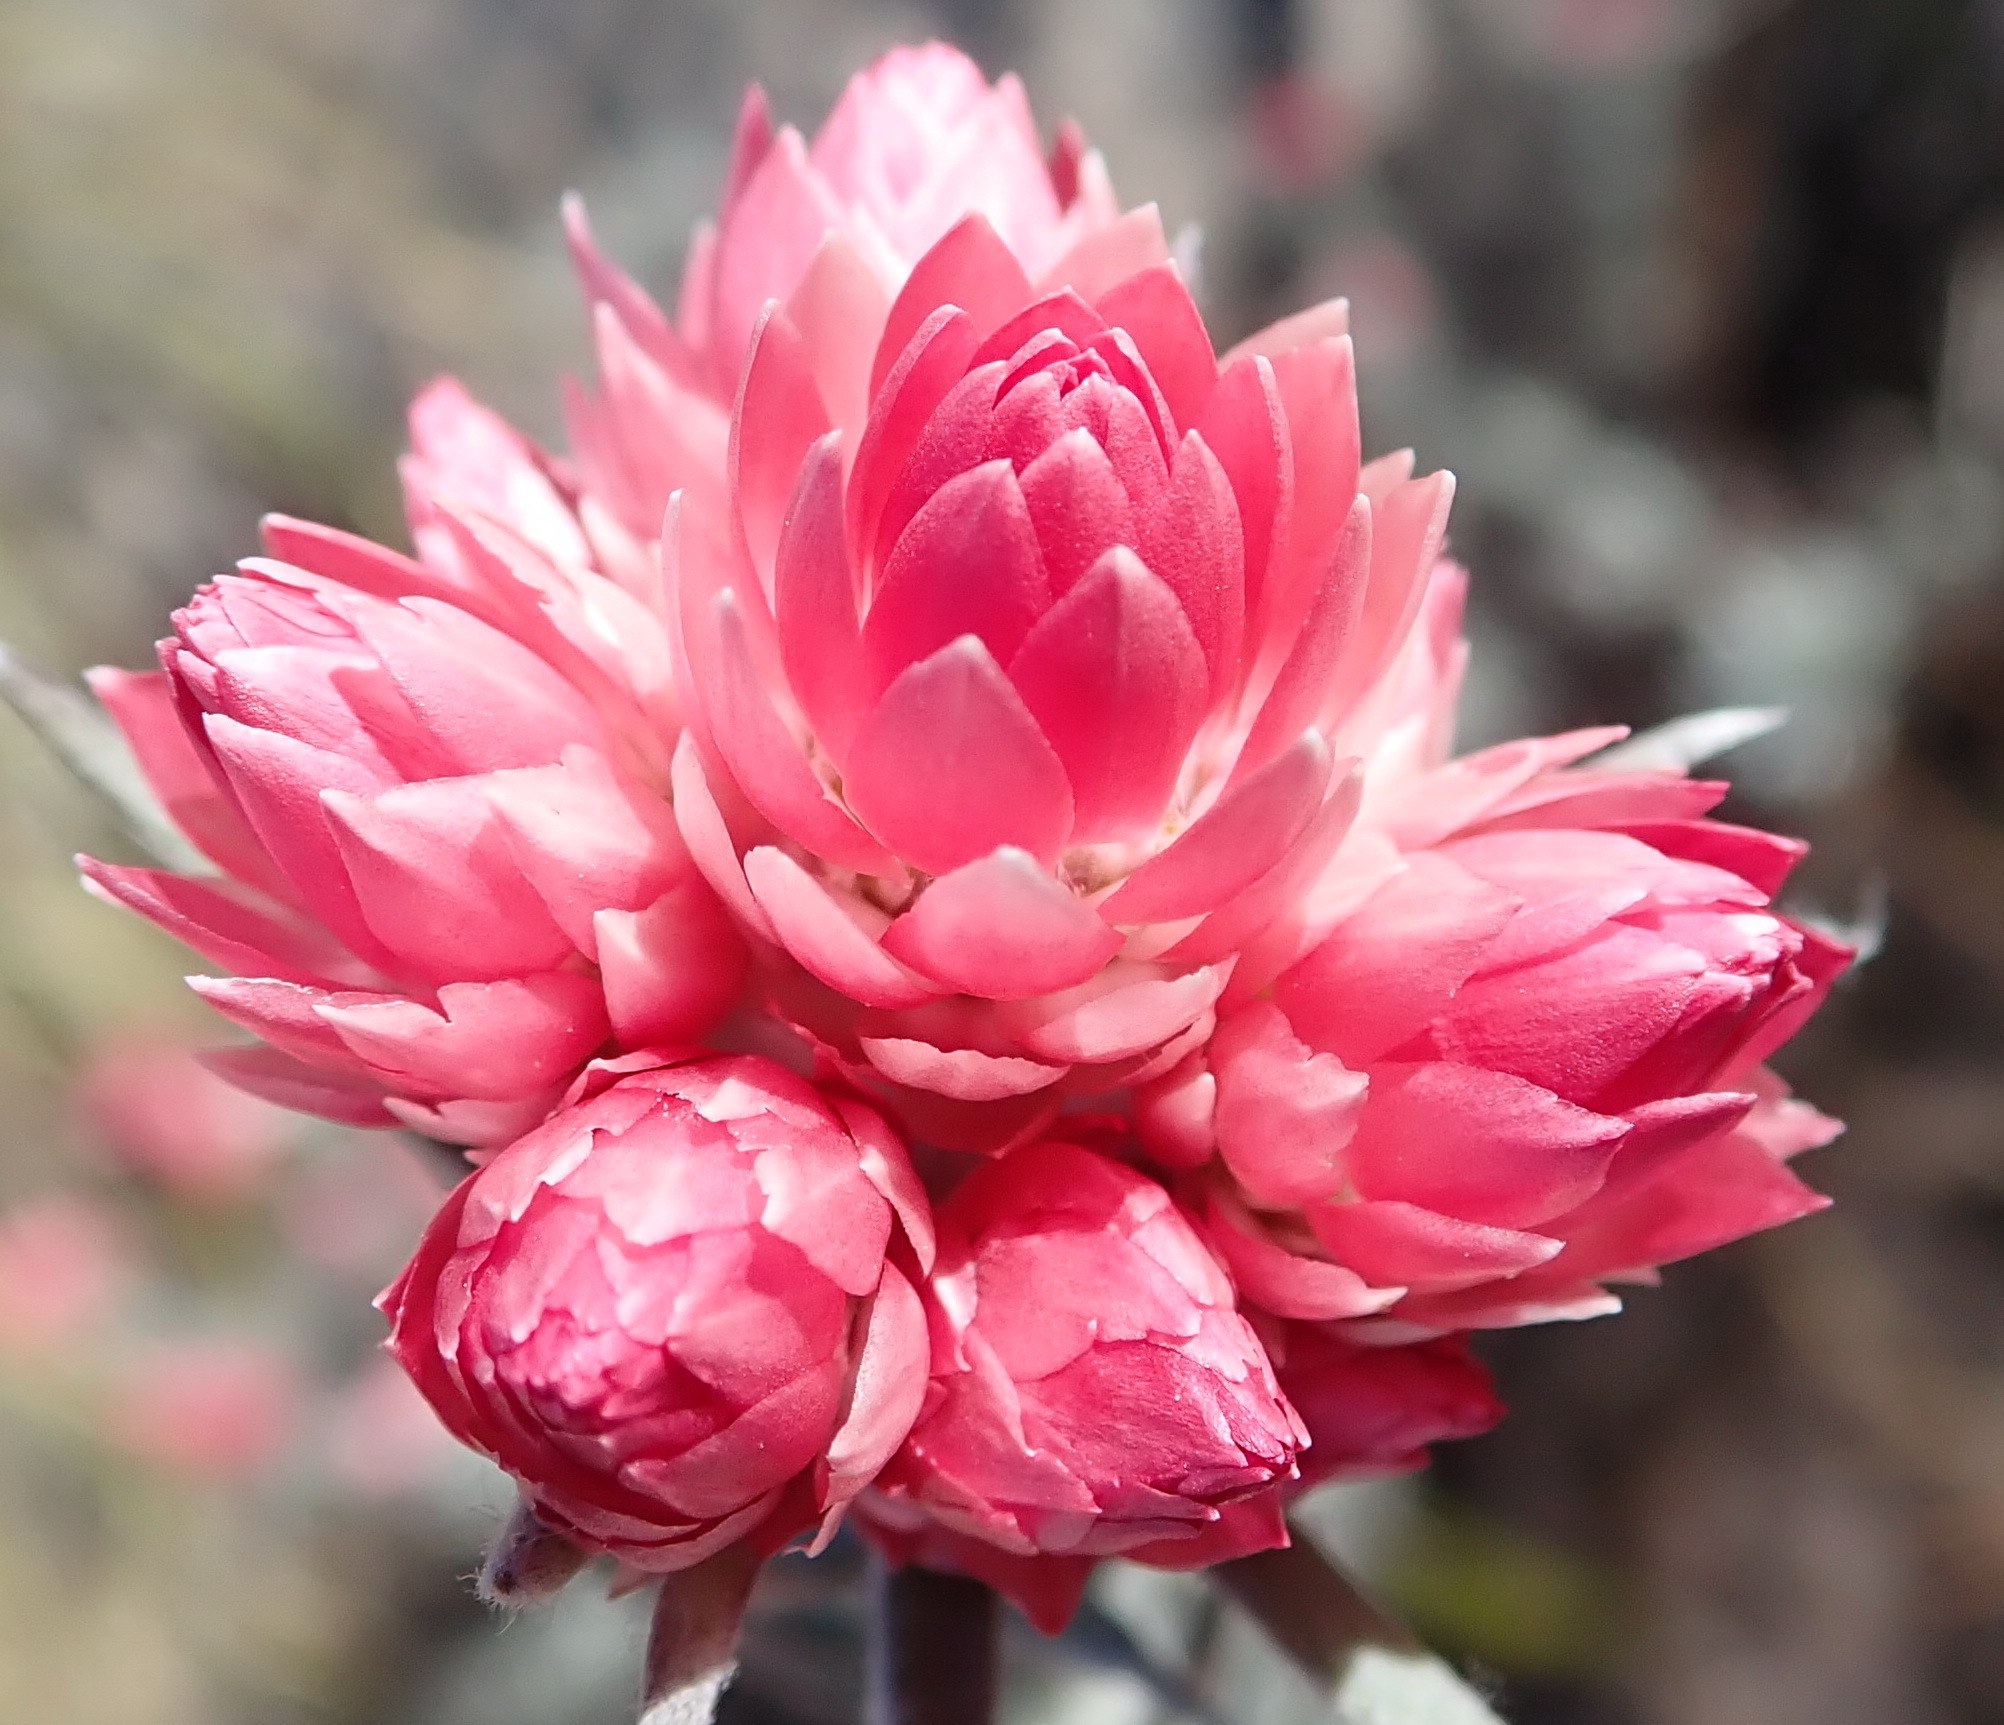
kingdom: Plantae
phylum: Tracheophyta
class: Magnoliopsida
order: Asterales
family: Asteraceae
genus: Achyranthemum
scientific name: Achyranthemum paniculatum
